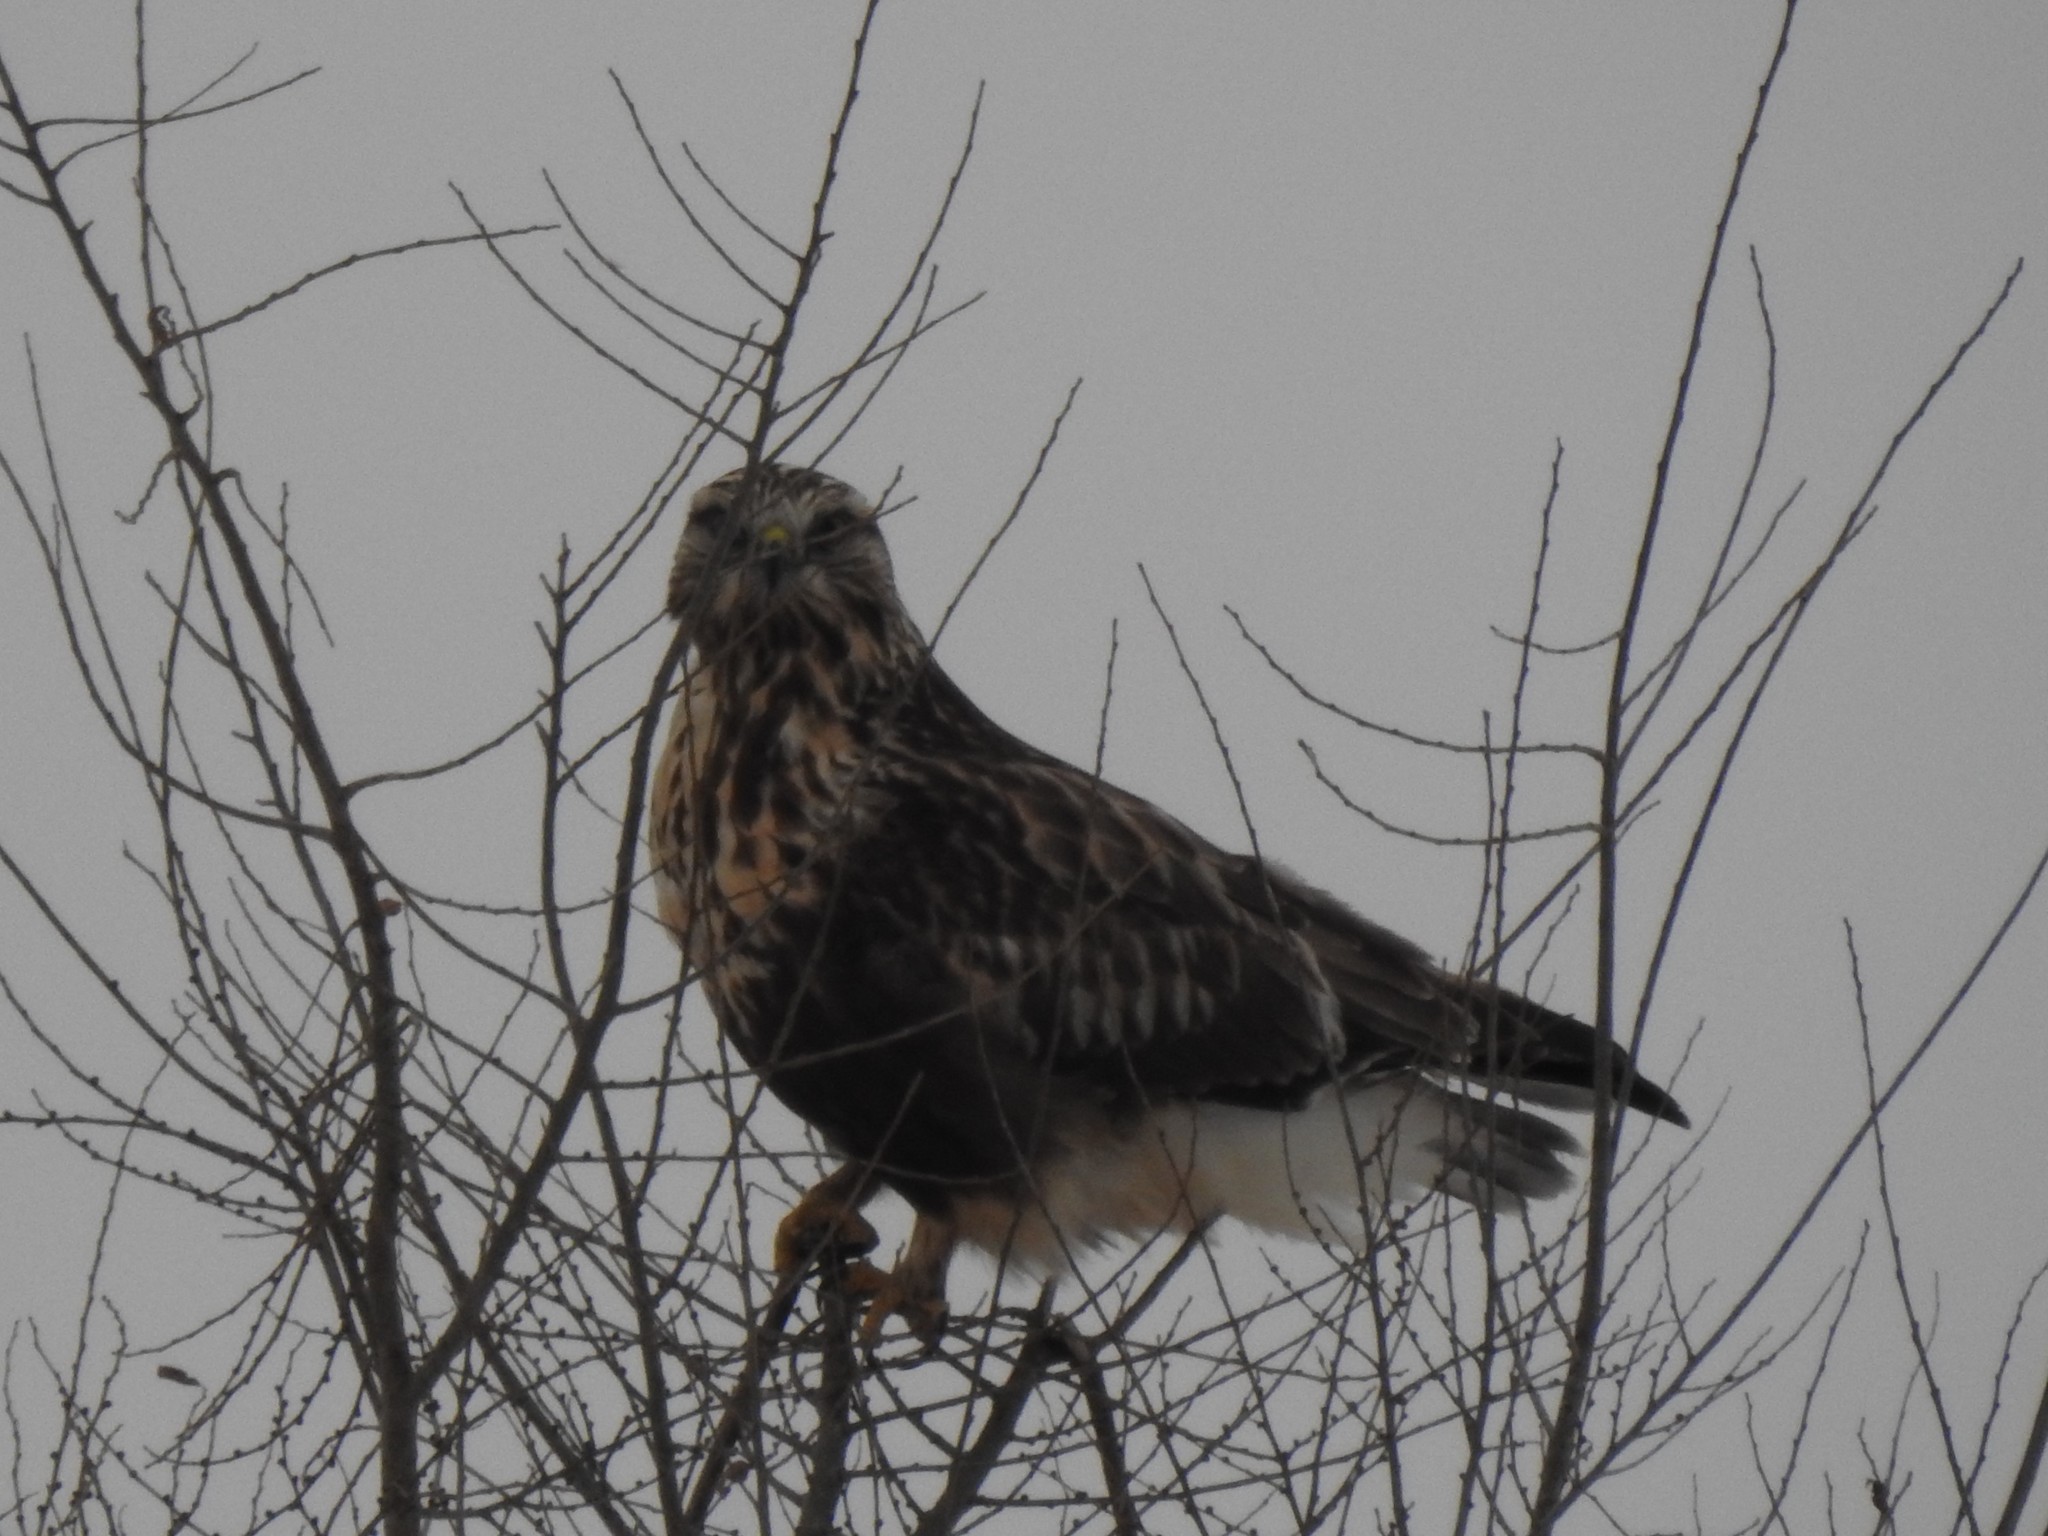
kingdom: Animalia
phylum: Chordata
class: Aves
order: Accipitriformes
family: Accipitridae
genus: Buteo
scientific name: Buteo lagopus
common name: Rough-legged buzzard
